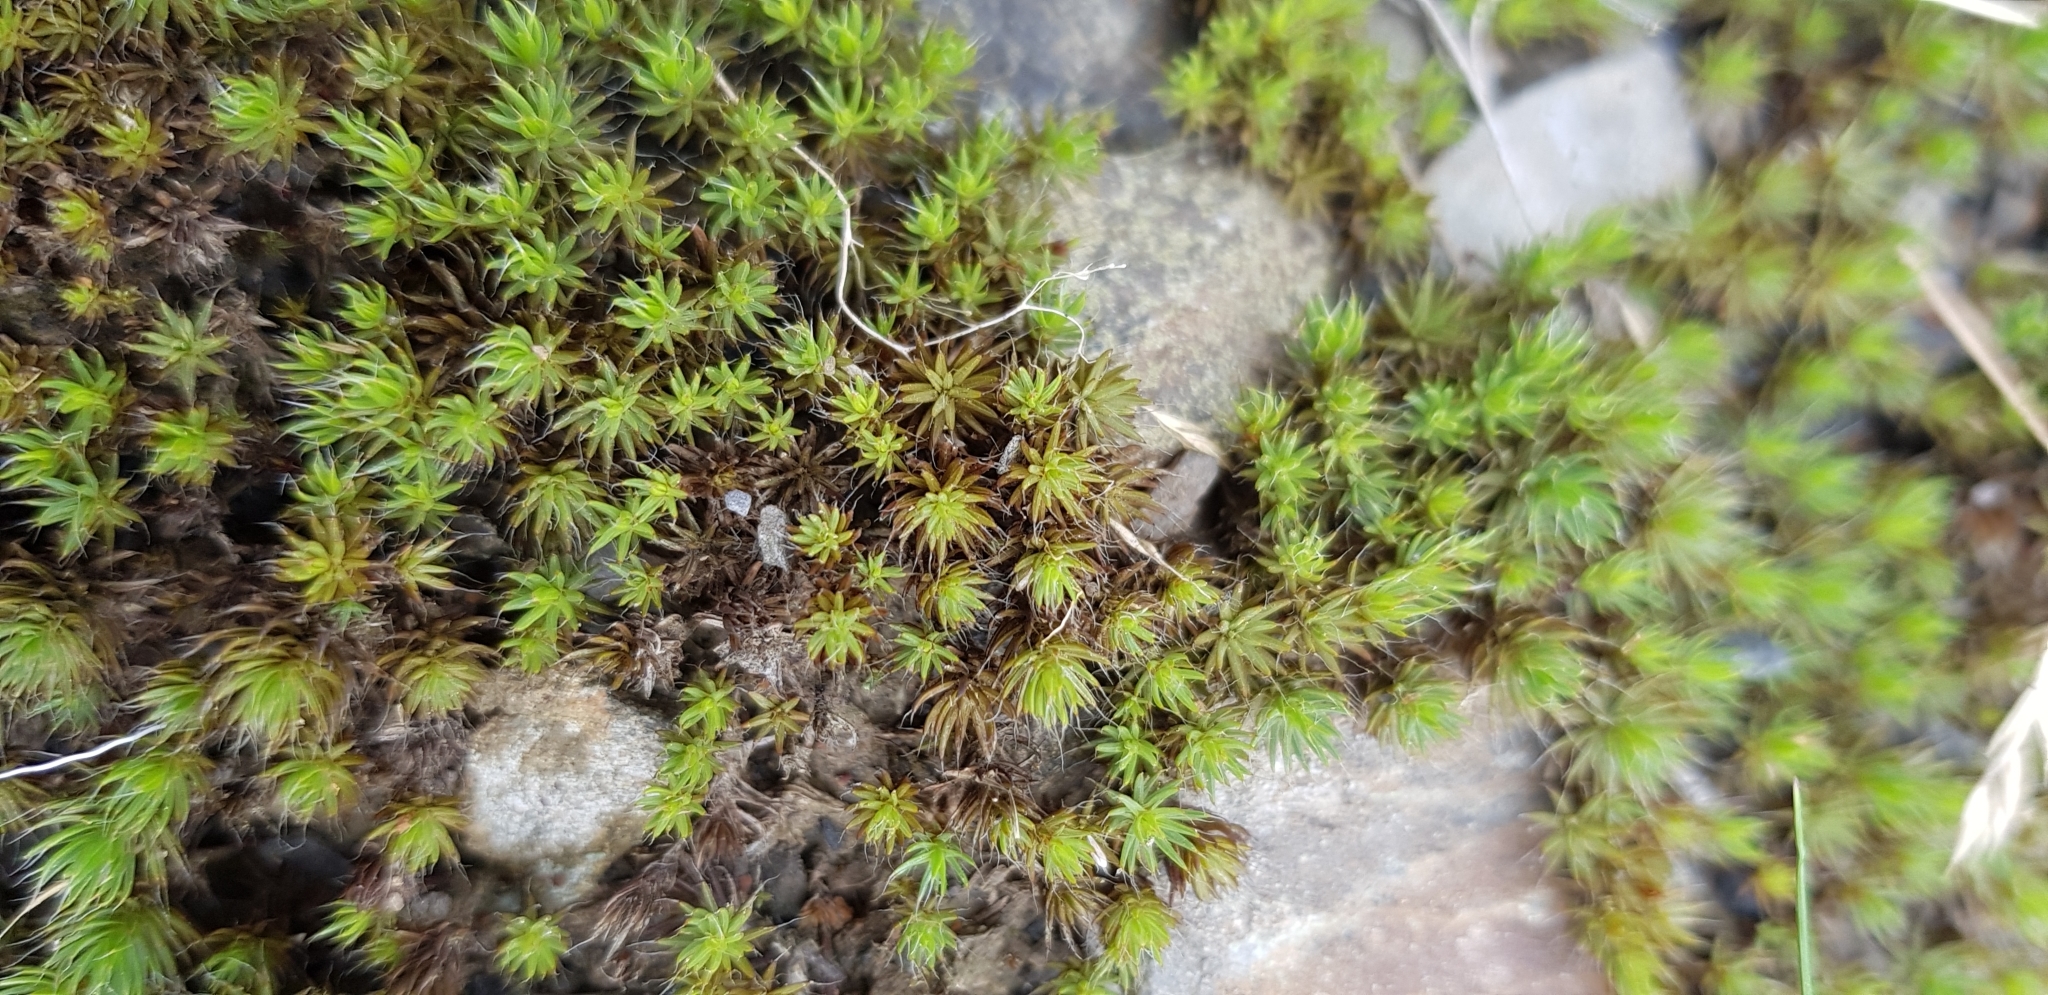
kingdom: Plantae
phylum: Bryophyta
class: Polytrichopsida
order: Polytrichales
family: Polytrichaceae
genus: Polytrichum
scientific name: Polytrichum piliferum
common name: Bristly haircap
